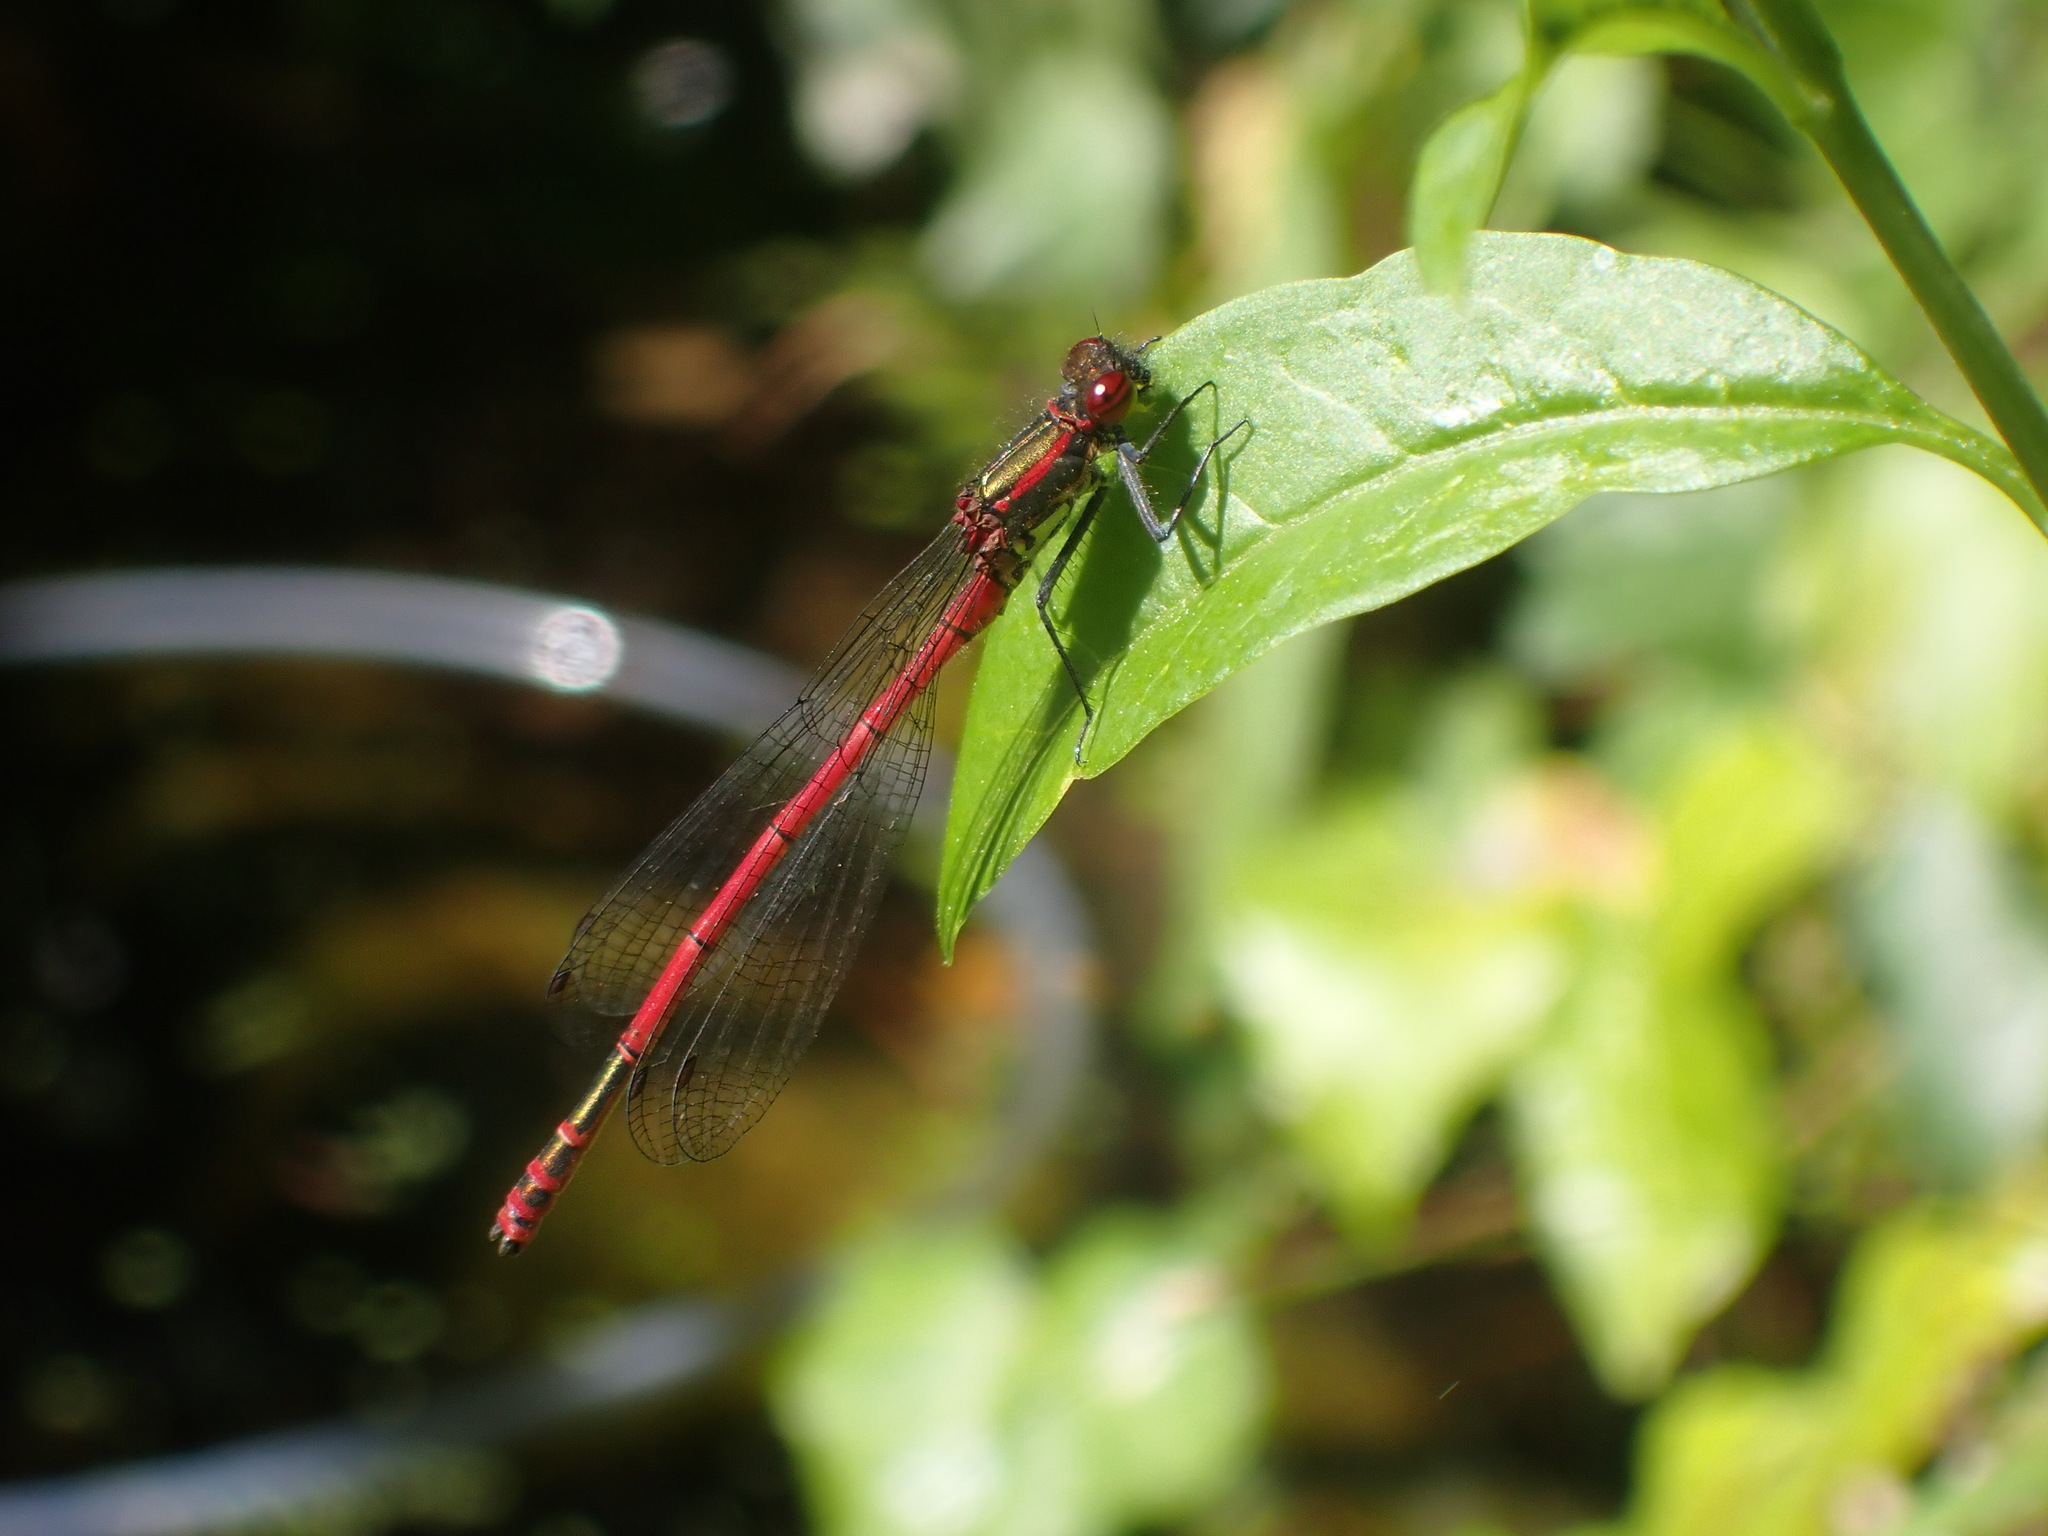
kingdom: Animalia
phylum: Arthropoda
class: Insecta
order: Odonata
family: Coenagrionidae
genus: Pyrrhosoma
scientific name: Pyrrhosoma nymphula
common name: Large red damsel
